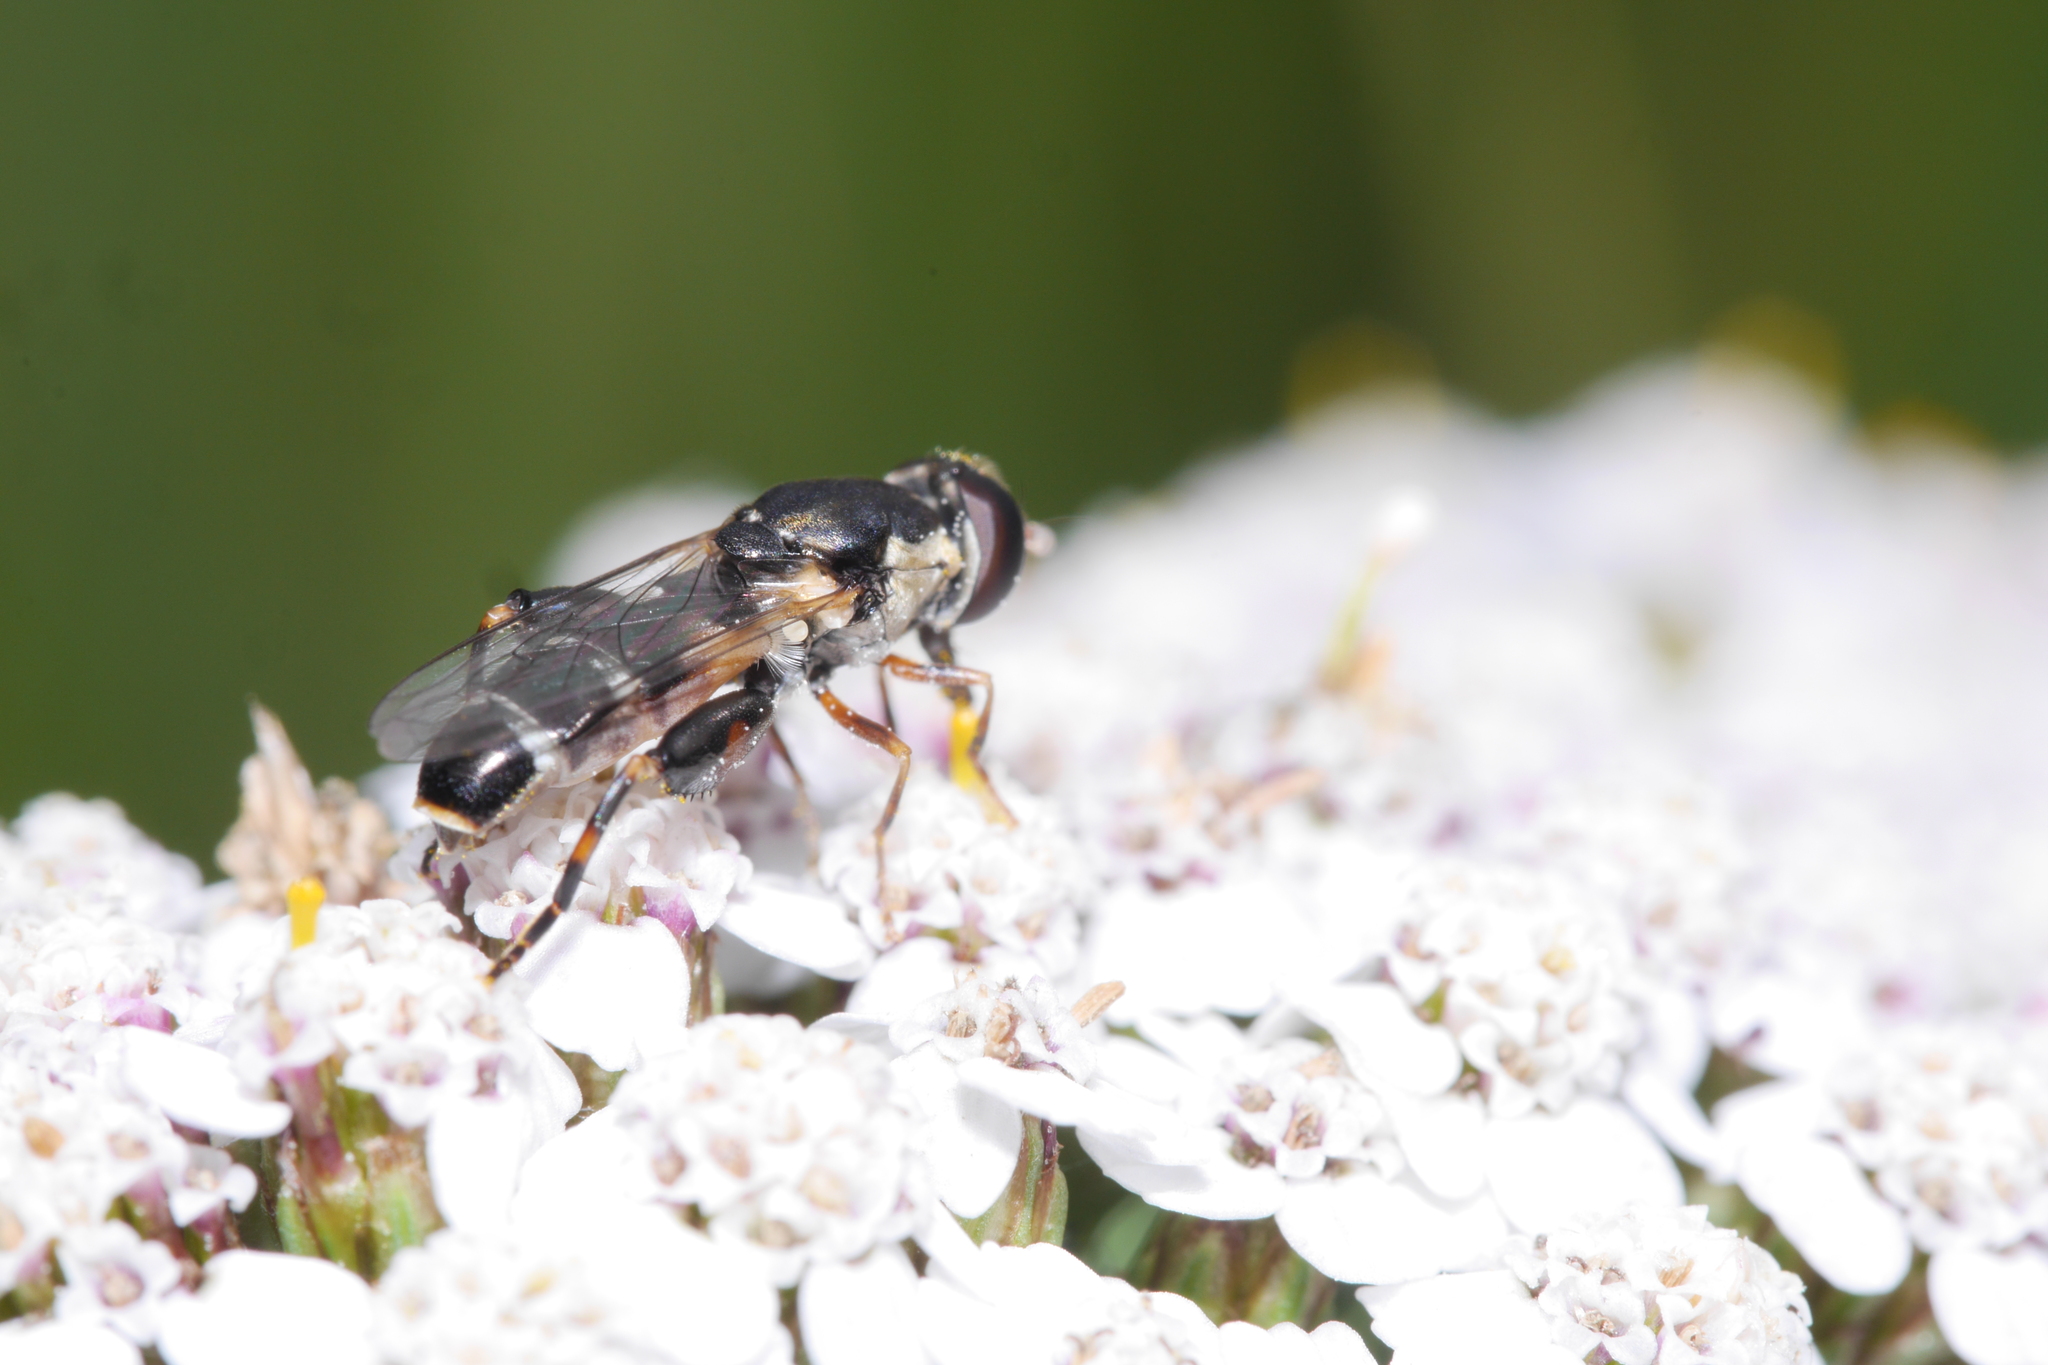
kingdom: Animalia
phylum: Arthropoda
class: Insecta
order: Diptera
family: Syrphidae
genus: Syritta
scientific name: Syritta pipiens
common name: Hover fly
